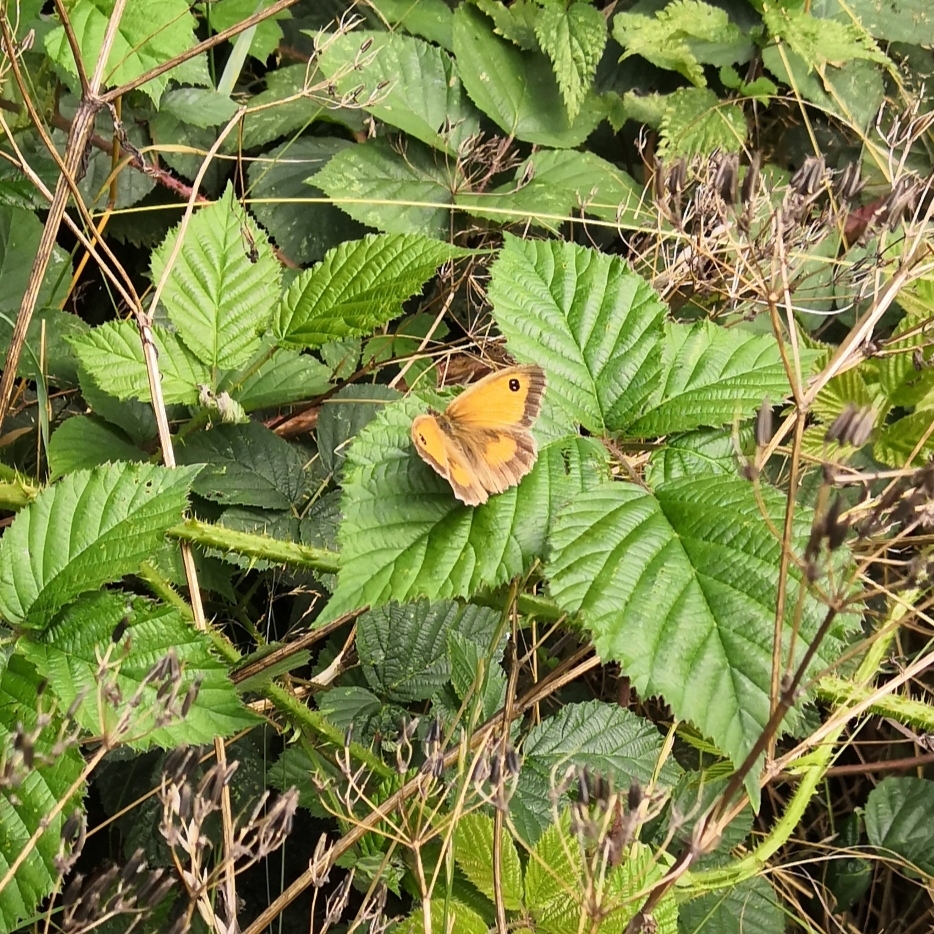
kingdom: Animalia
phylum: Arthropoda
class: Insecta
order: Lepidoptera
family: Nymphalidae
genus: Pyronia
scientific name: Pyronia tithonus
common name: Gatekeeper
